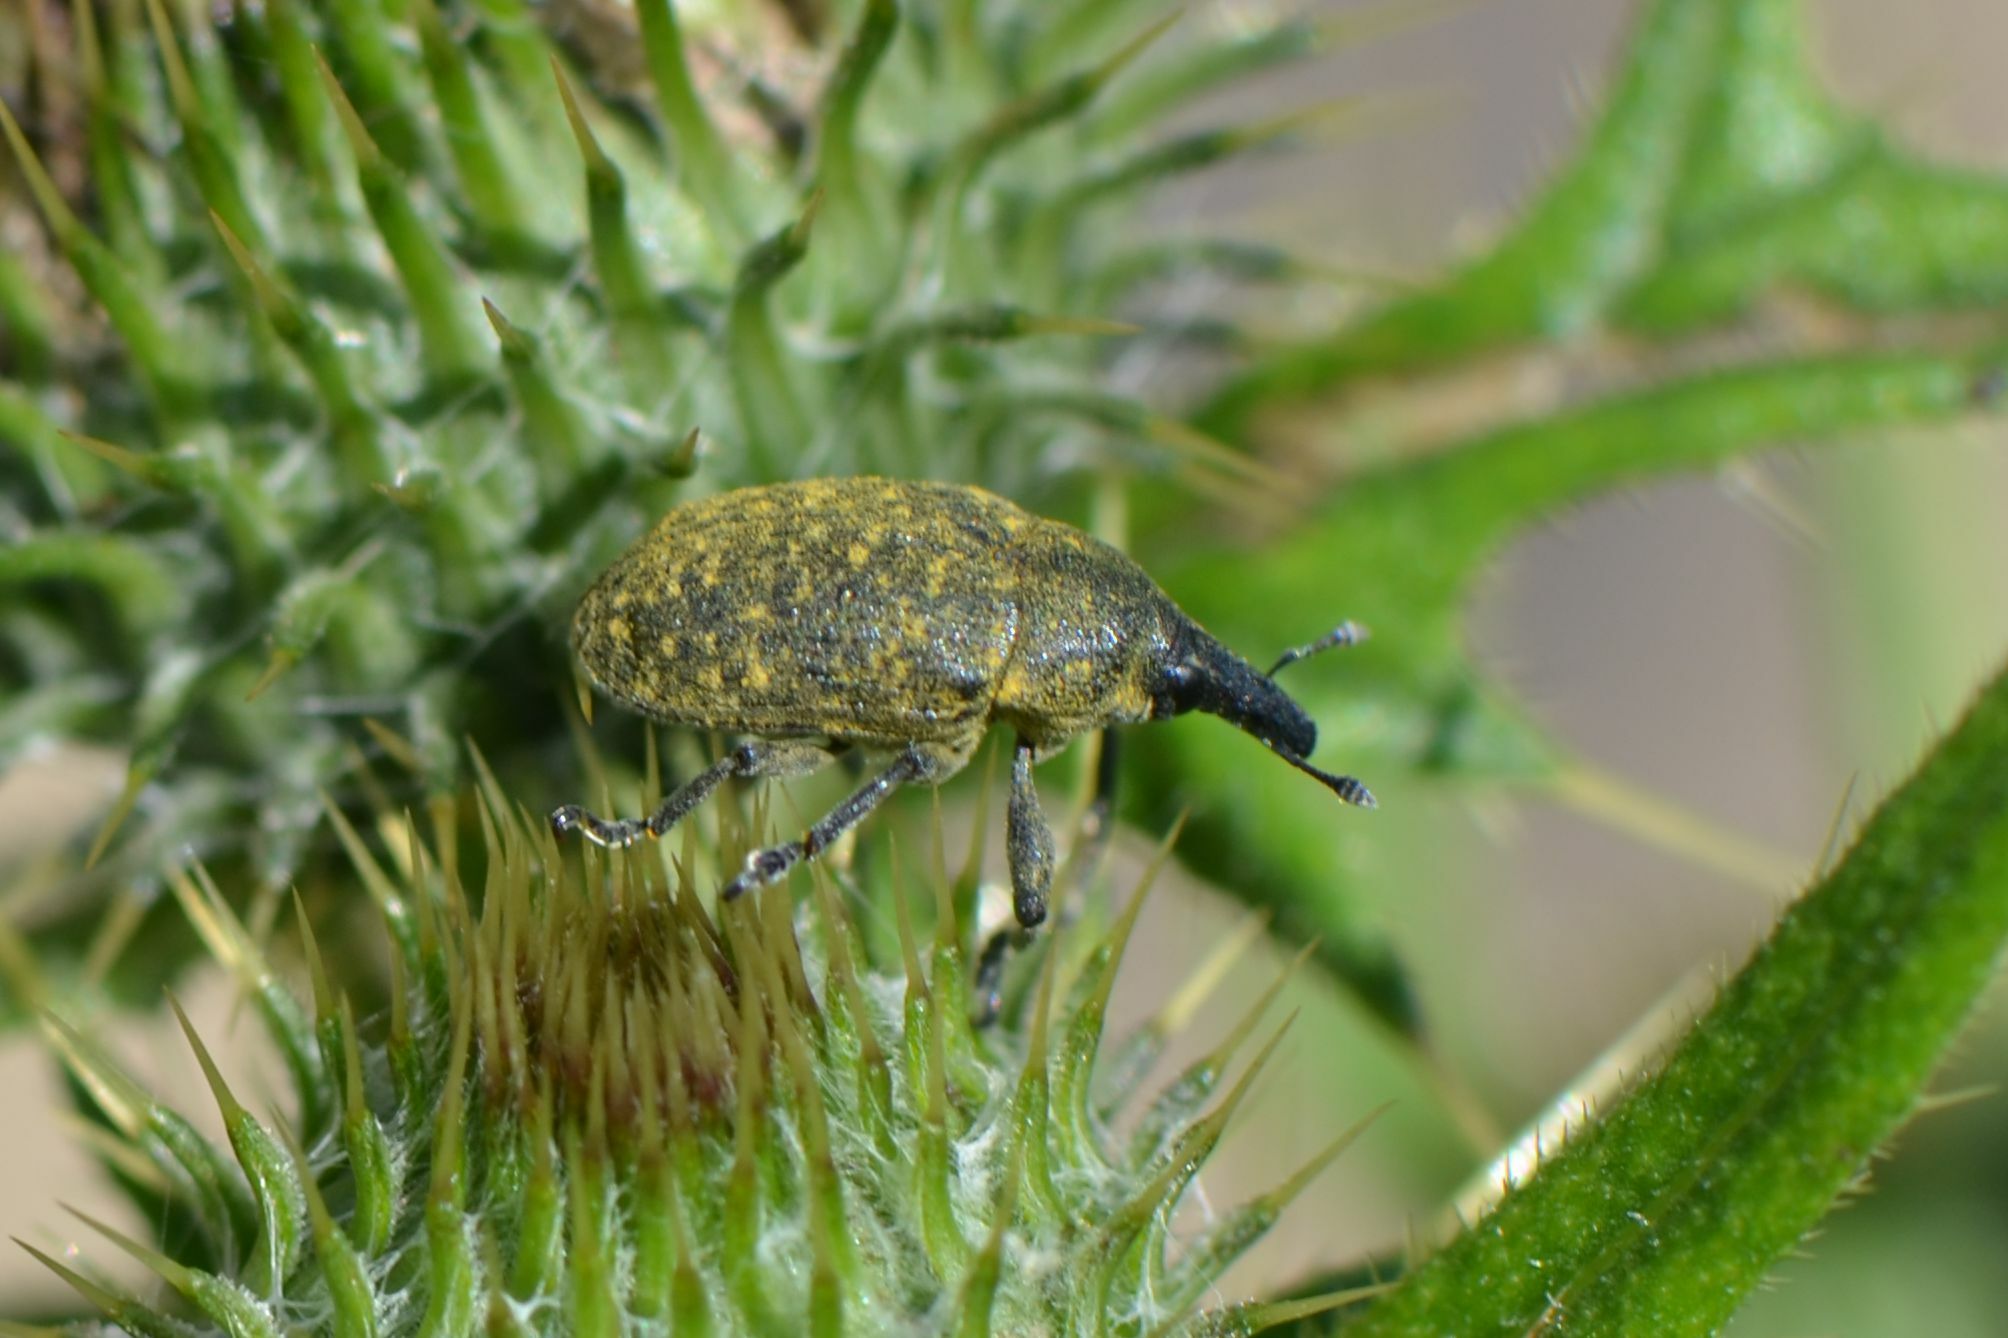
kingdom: Animalia
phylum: Arthropoda
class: Insecta
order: Coleoptera
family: Curculionidae
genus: Larinus
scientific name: Larinus turbinatus
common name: Weevil
